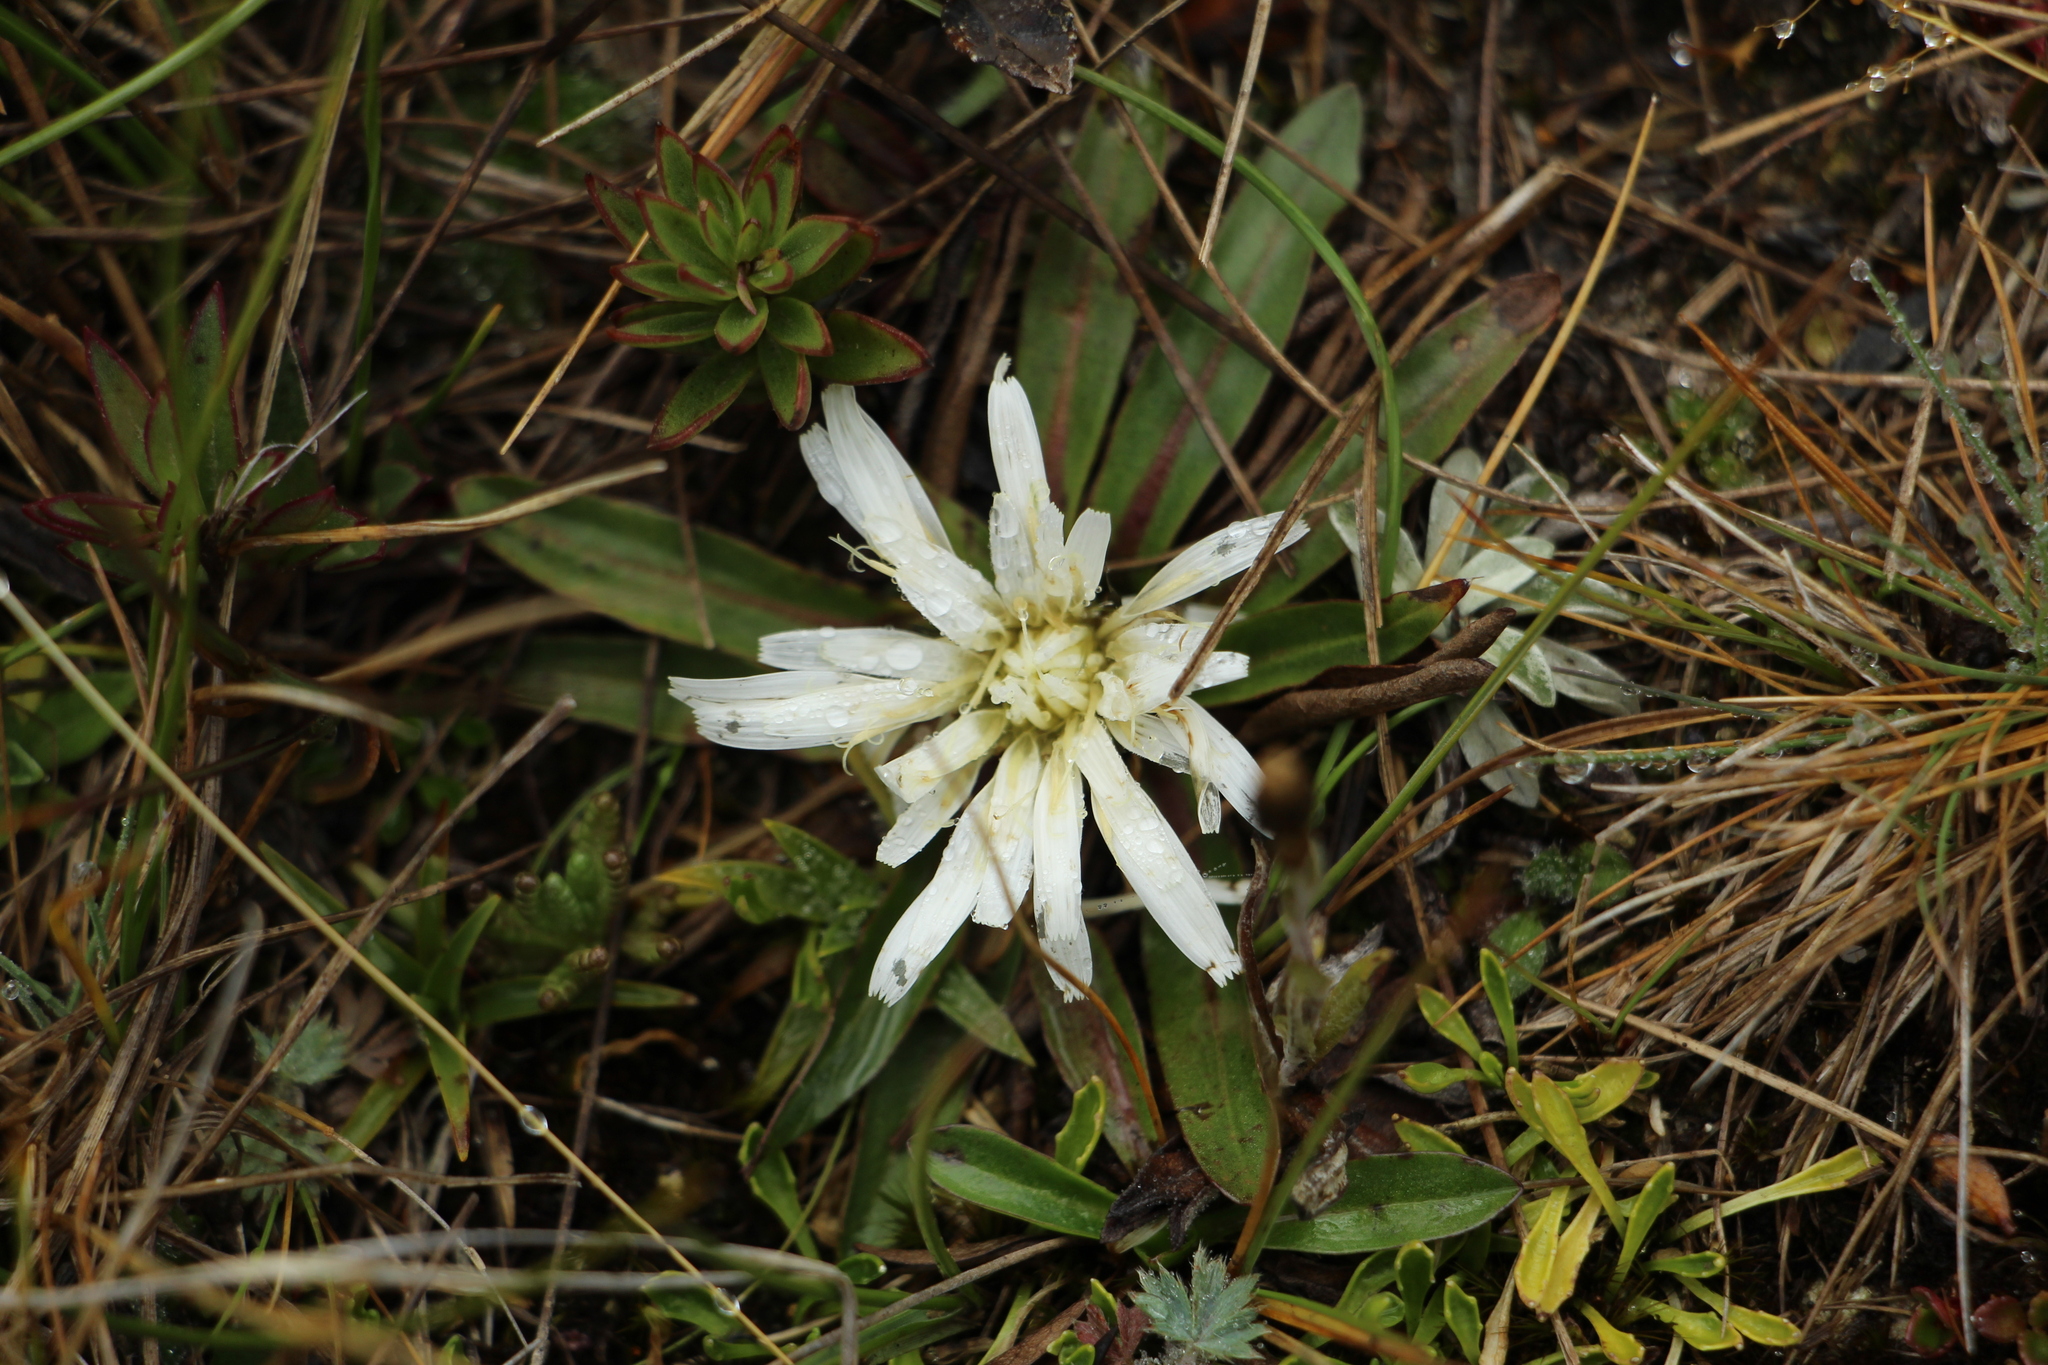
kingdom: Plantae
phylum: Tracheophyta
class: Magnoliopsida
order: Asterales
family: Asteraceae
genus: Hypochaeris
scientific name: Hypochaeris sessiliflora
